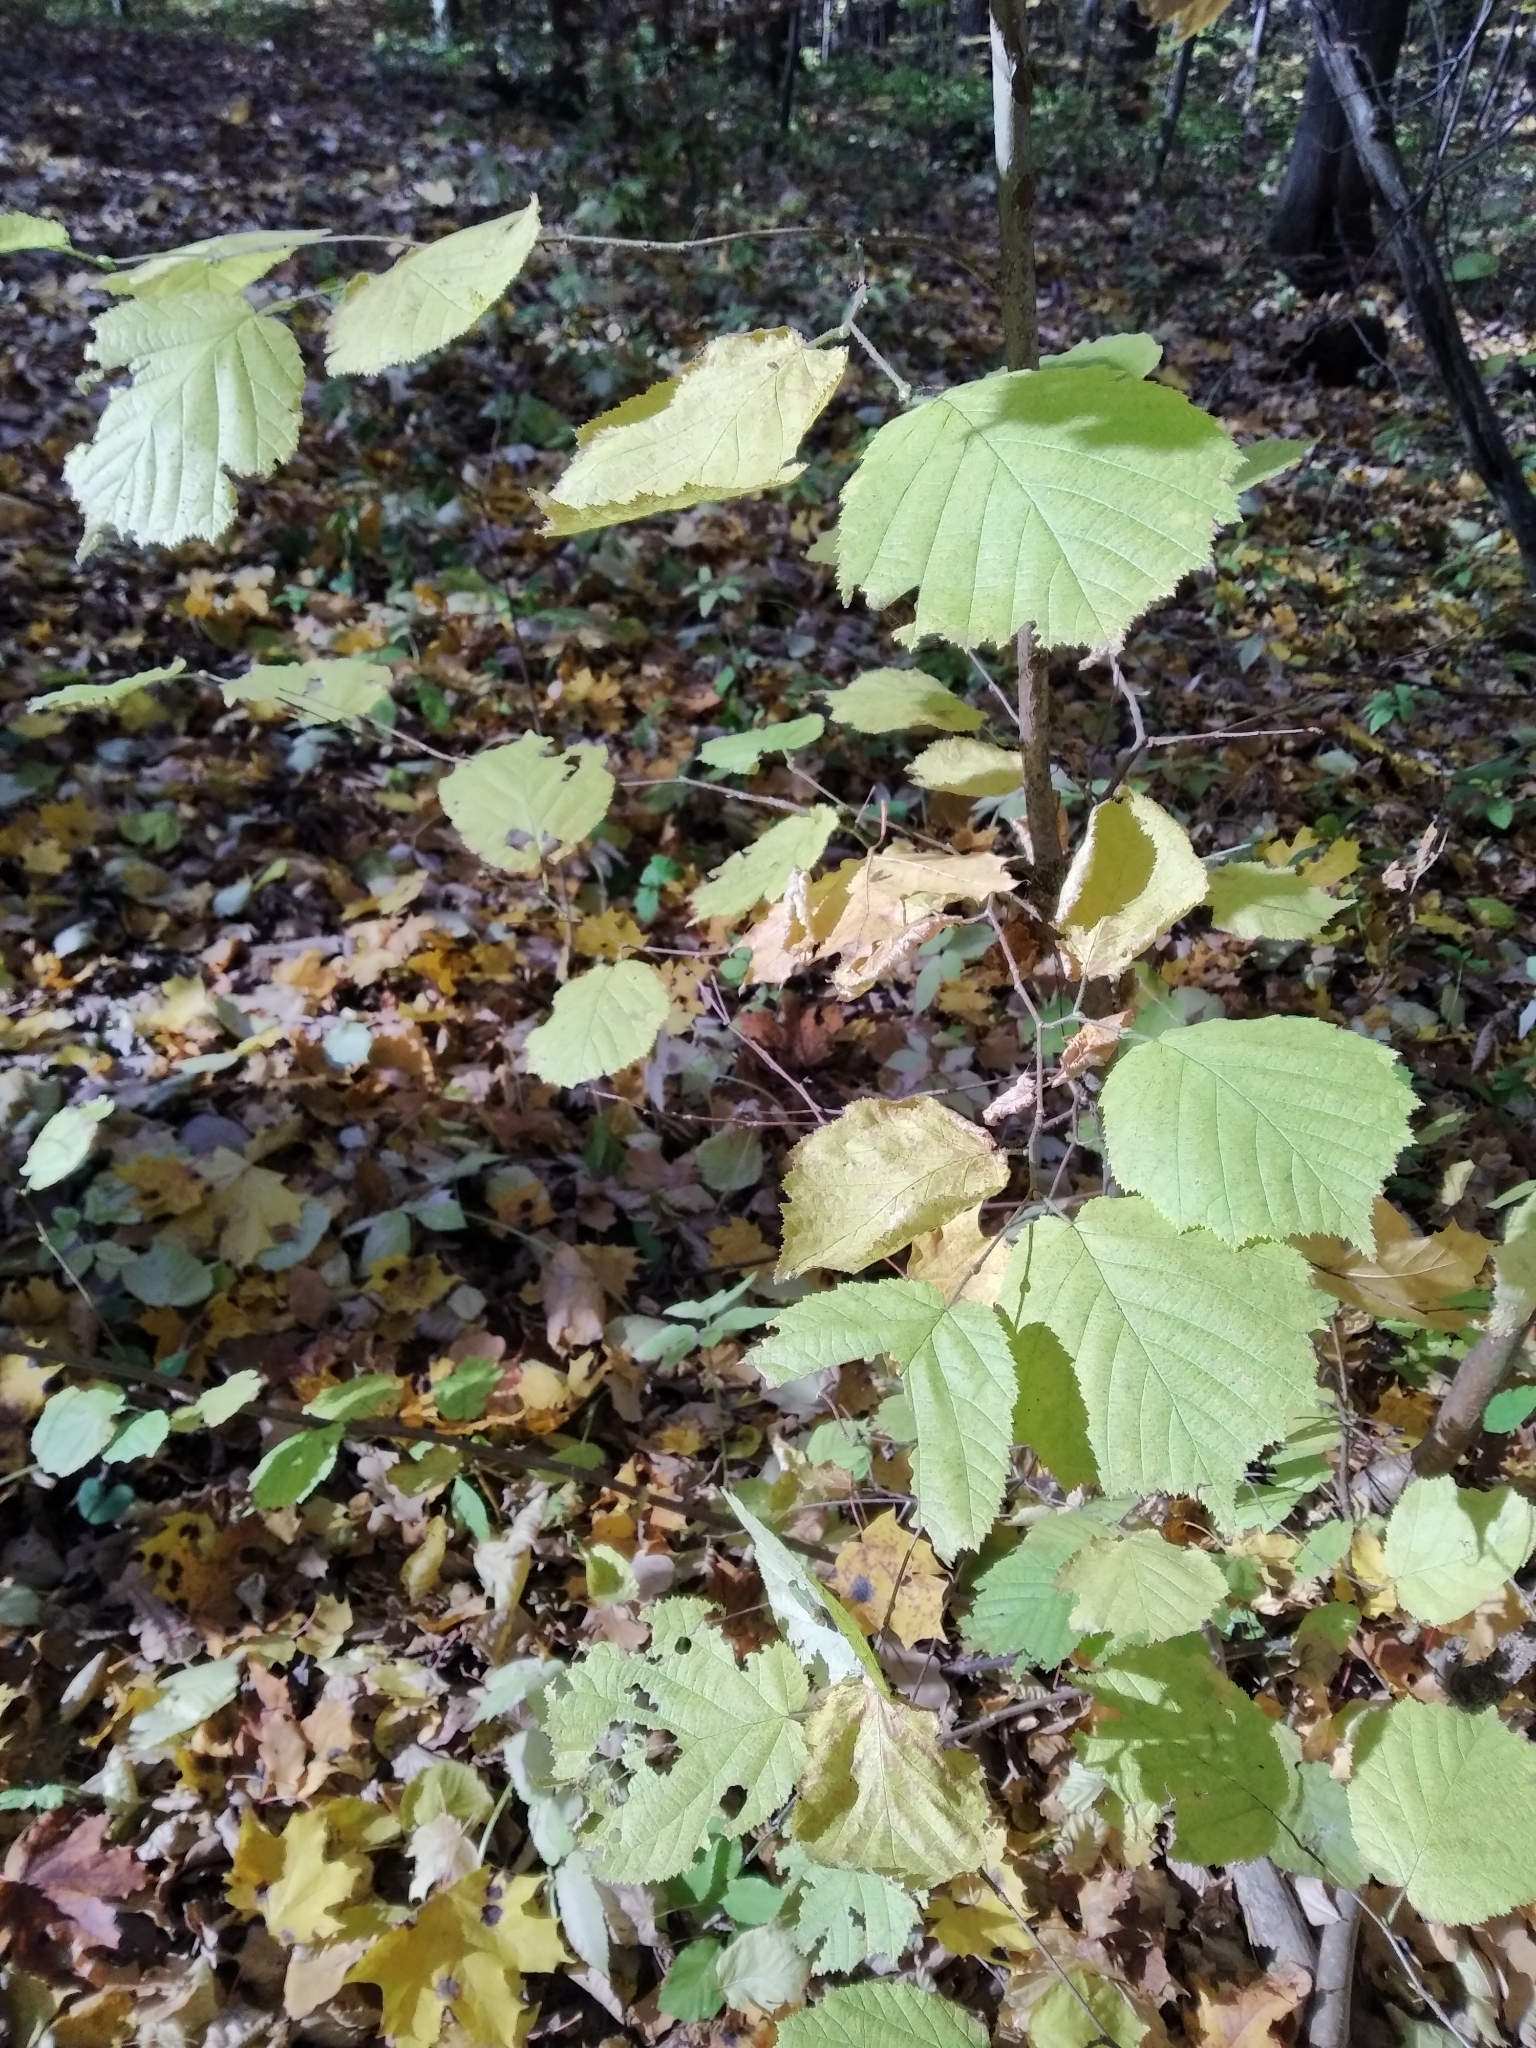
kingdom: Plantae
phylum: Tracheophyta
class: Magnoliopsida
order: Fagales
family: Betulaceae
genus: Corylus
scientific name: Corylus avellana
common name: European hazel
